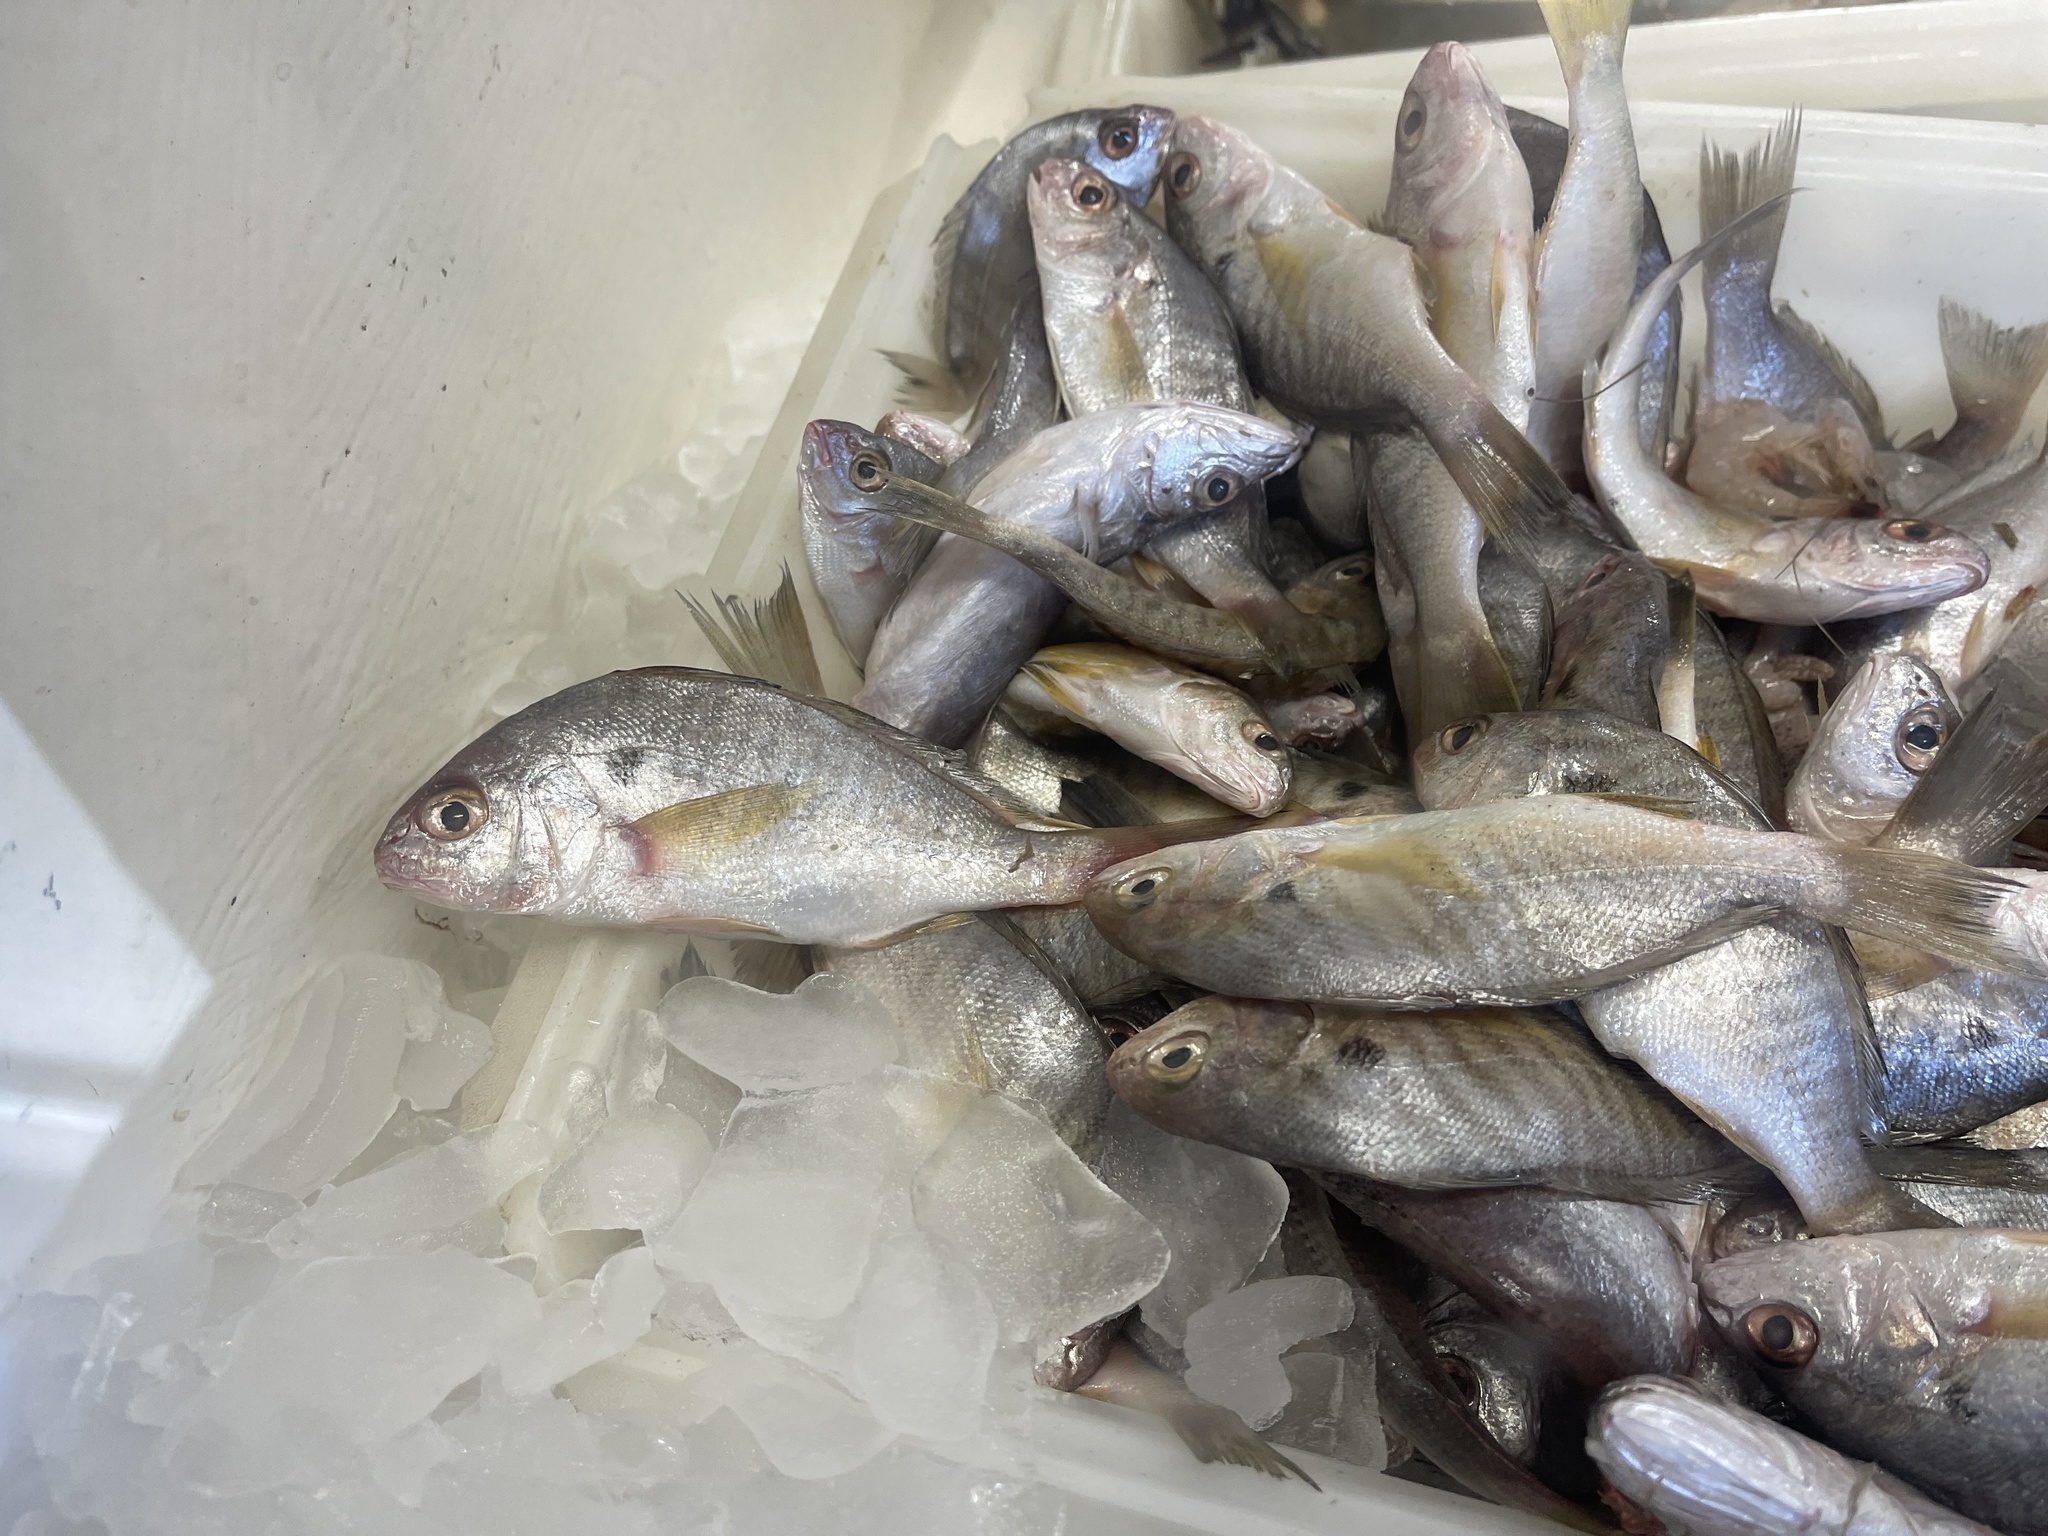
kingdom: Animalia
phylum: Chordata
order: Perciformes
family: Sciaenidae
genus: Leiostomus
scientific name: Leiostomus xanthurus
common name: Spot
